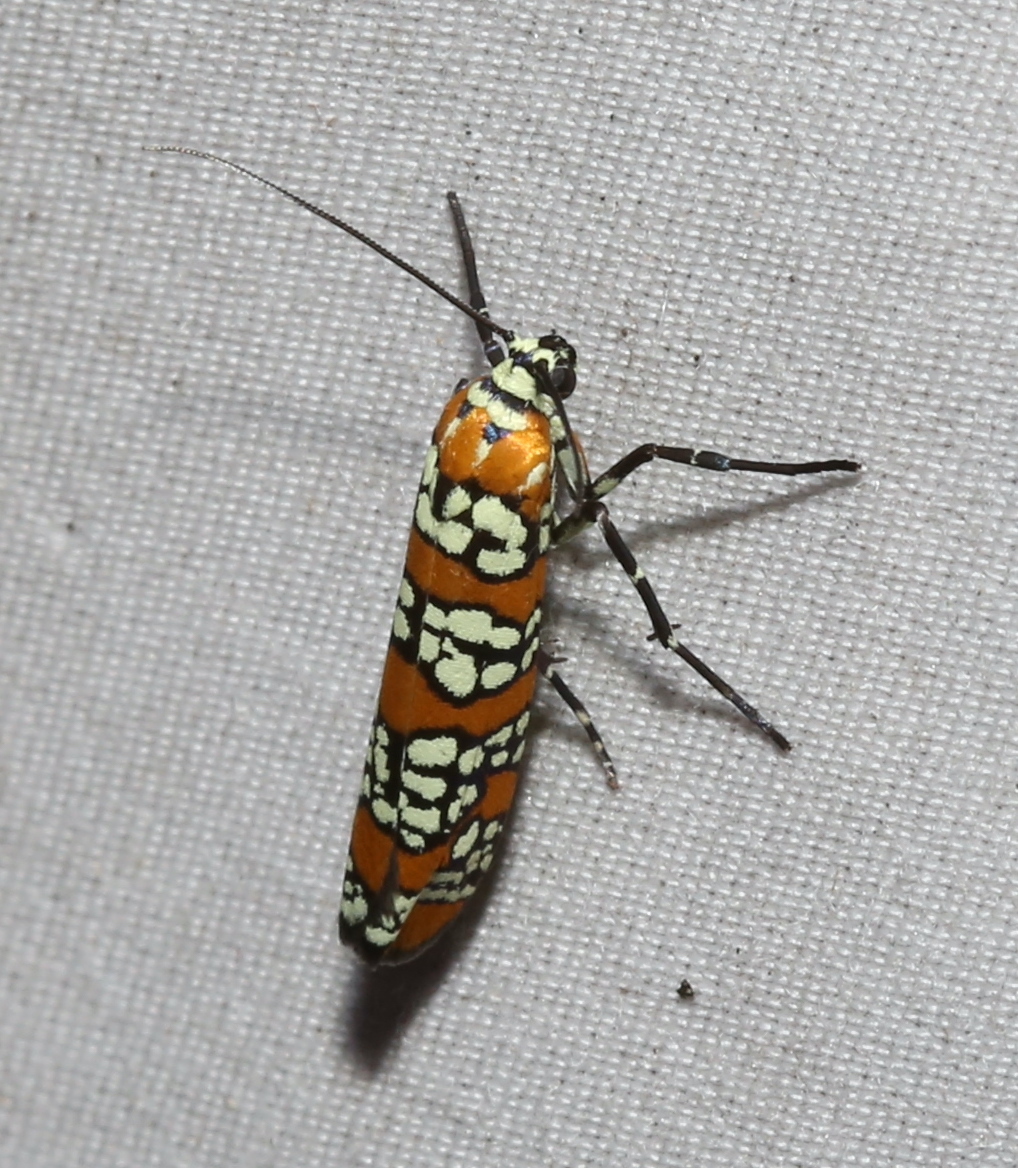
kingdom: Animalia
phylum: Arthropoda
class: Insecta
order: Lepidoptera
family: Attevidae
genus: Atteva
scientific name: Atteva punctella
